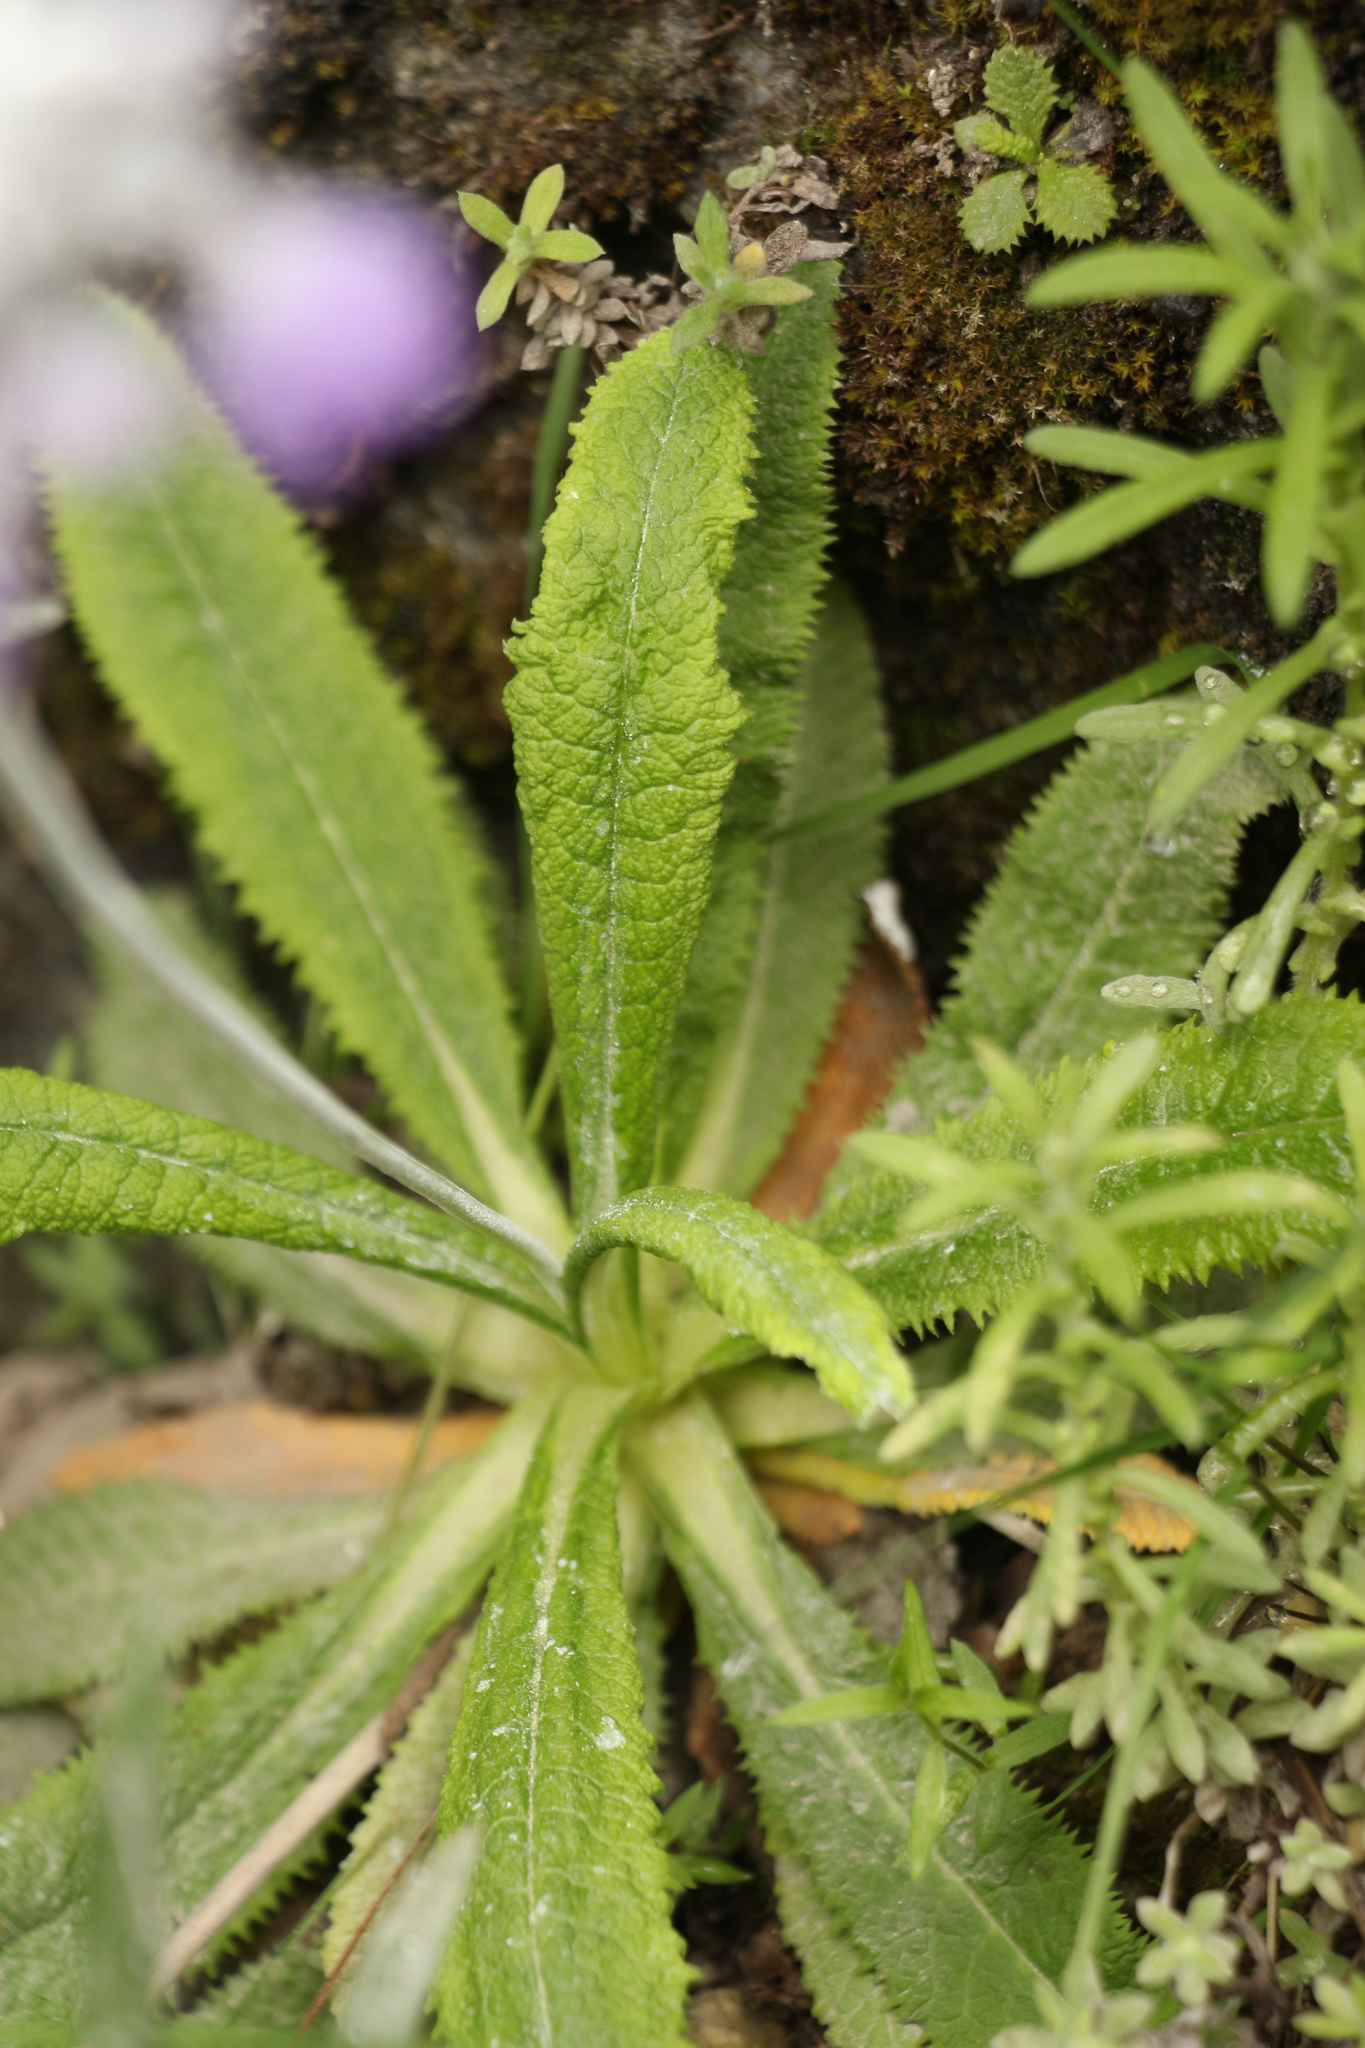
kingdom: Plantae
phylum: Tracheophyta
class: Magnoliopsida
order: Ericales
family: Primulaceae
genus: Primula
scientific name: Primula capitata
